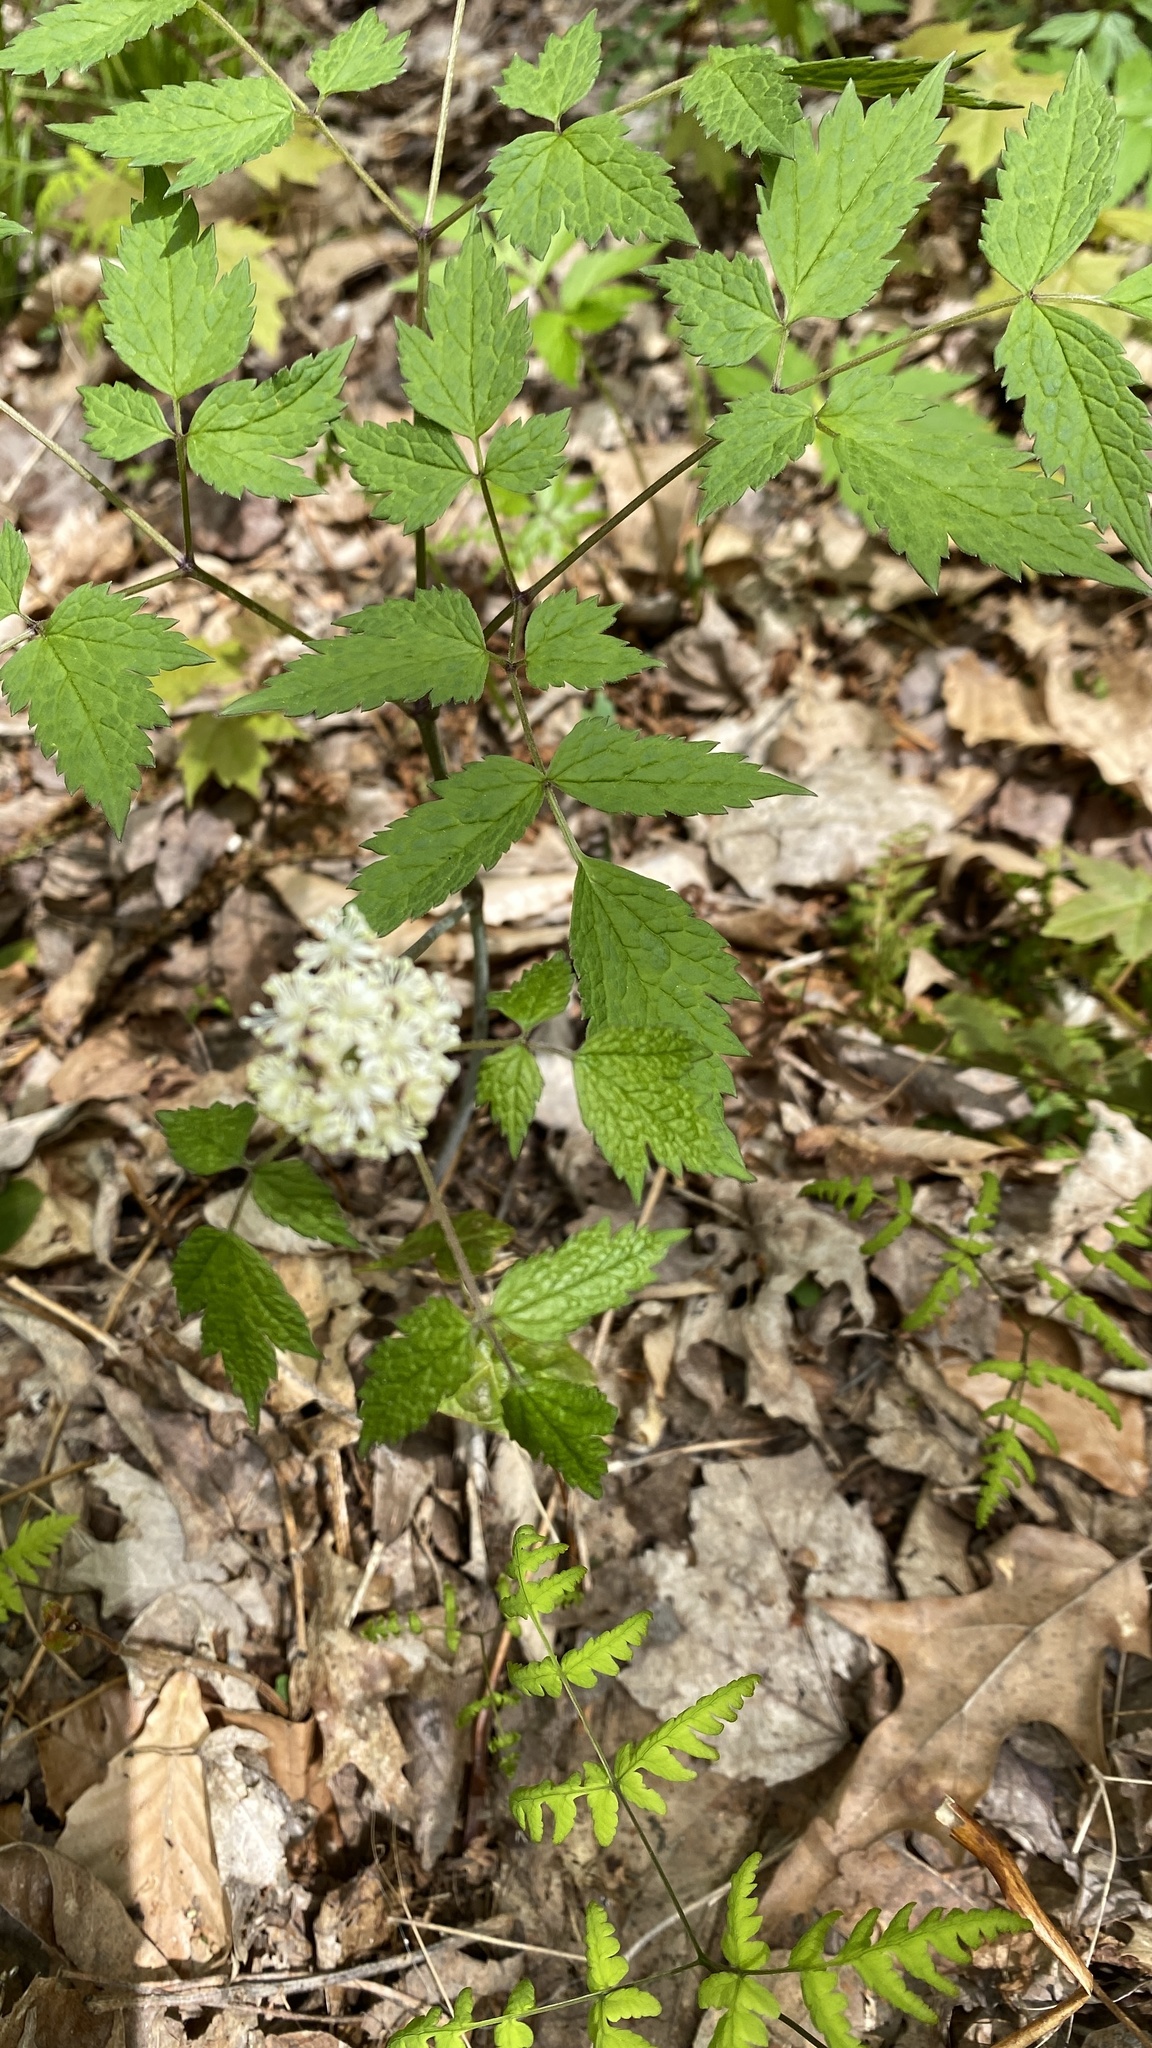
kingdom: Plantae
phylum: Tracheophyta
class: Magnoliopsida
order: Ranunculales
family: Ranunculaceae
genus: Actaea
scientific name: Actaea pachypoda
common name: Doll's-eyes
